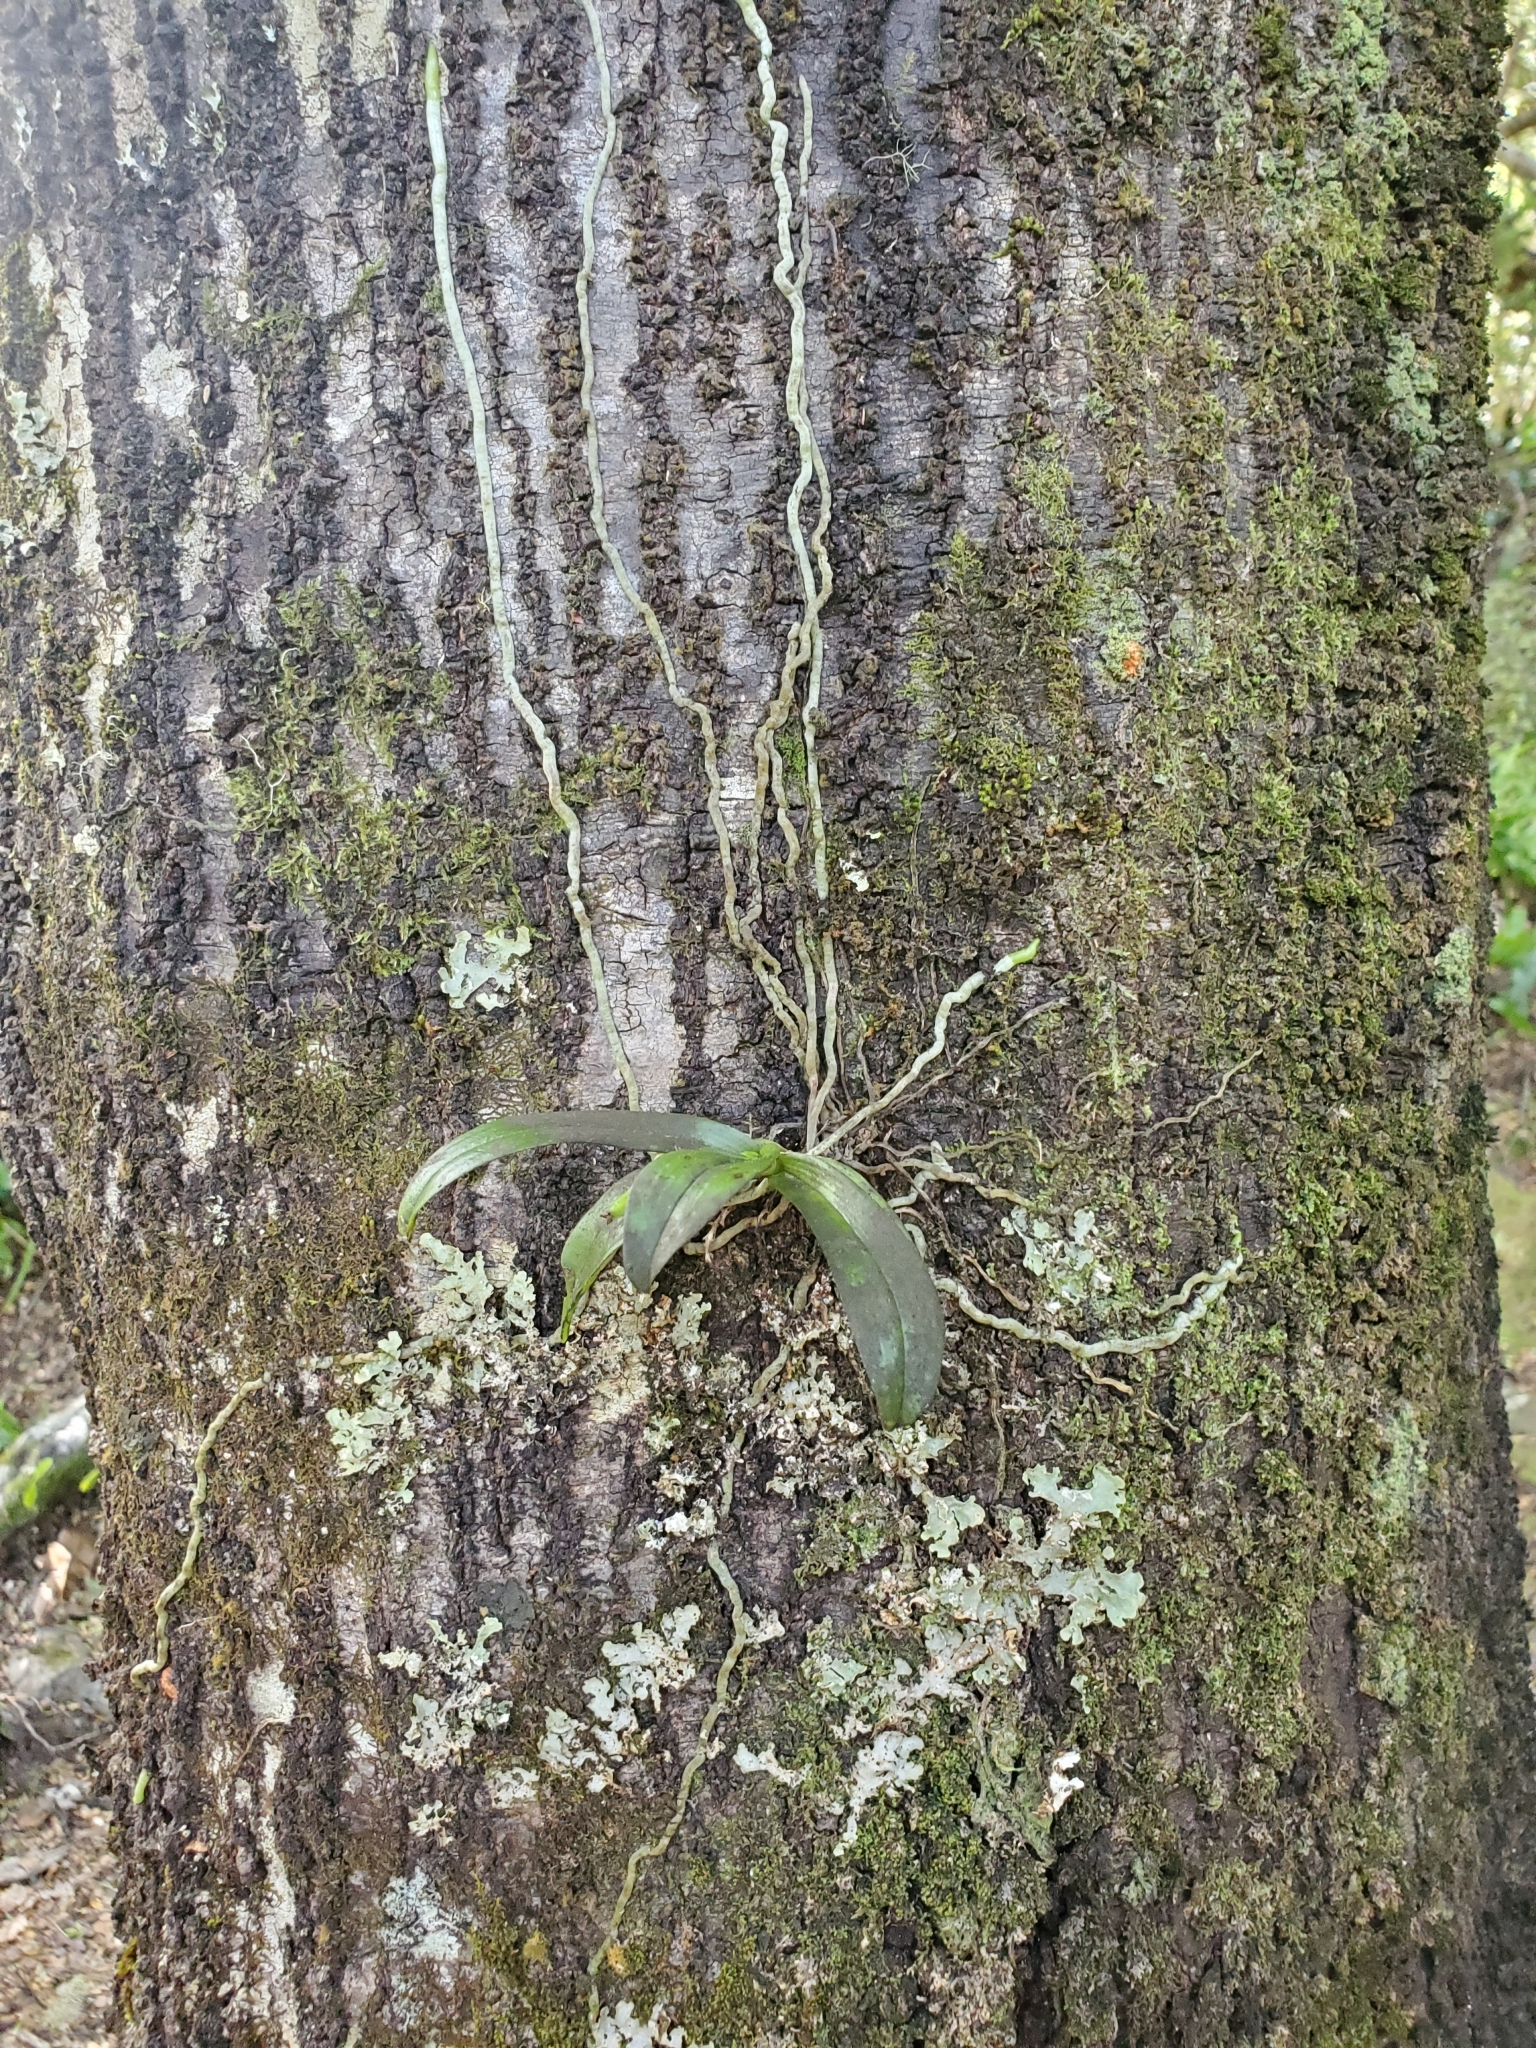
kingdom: Plantae
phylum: Tracheophyta
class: Liliopsida
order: Asparagales
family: Orchidaceae
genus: Drymoanthus
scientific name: Drymoanthus adversus
